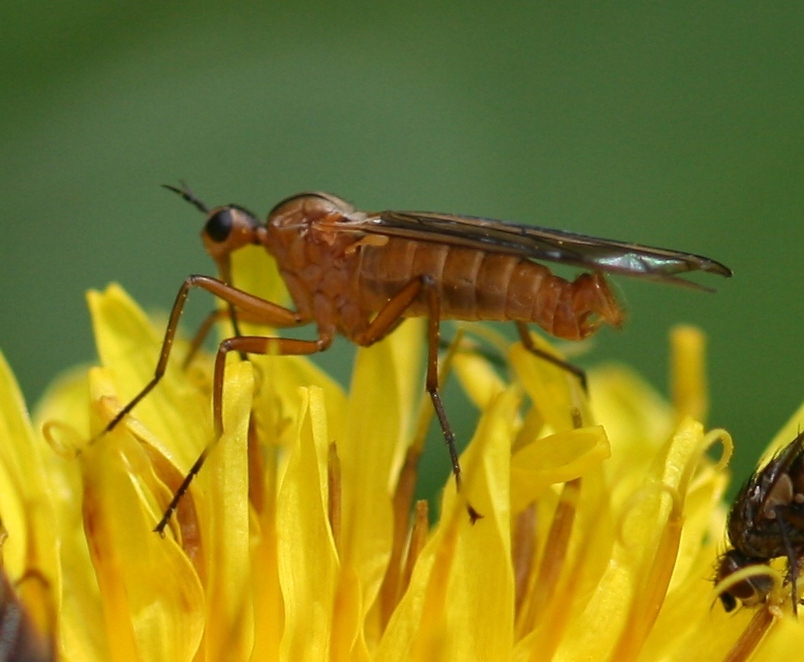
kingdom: Animalia
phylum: Arthropoda
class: Insecta
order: Diptera
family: Empididae
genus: Empis
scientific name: Empis diagramma
